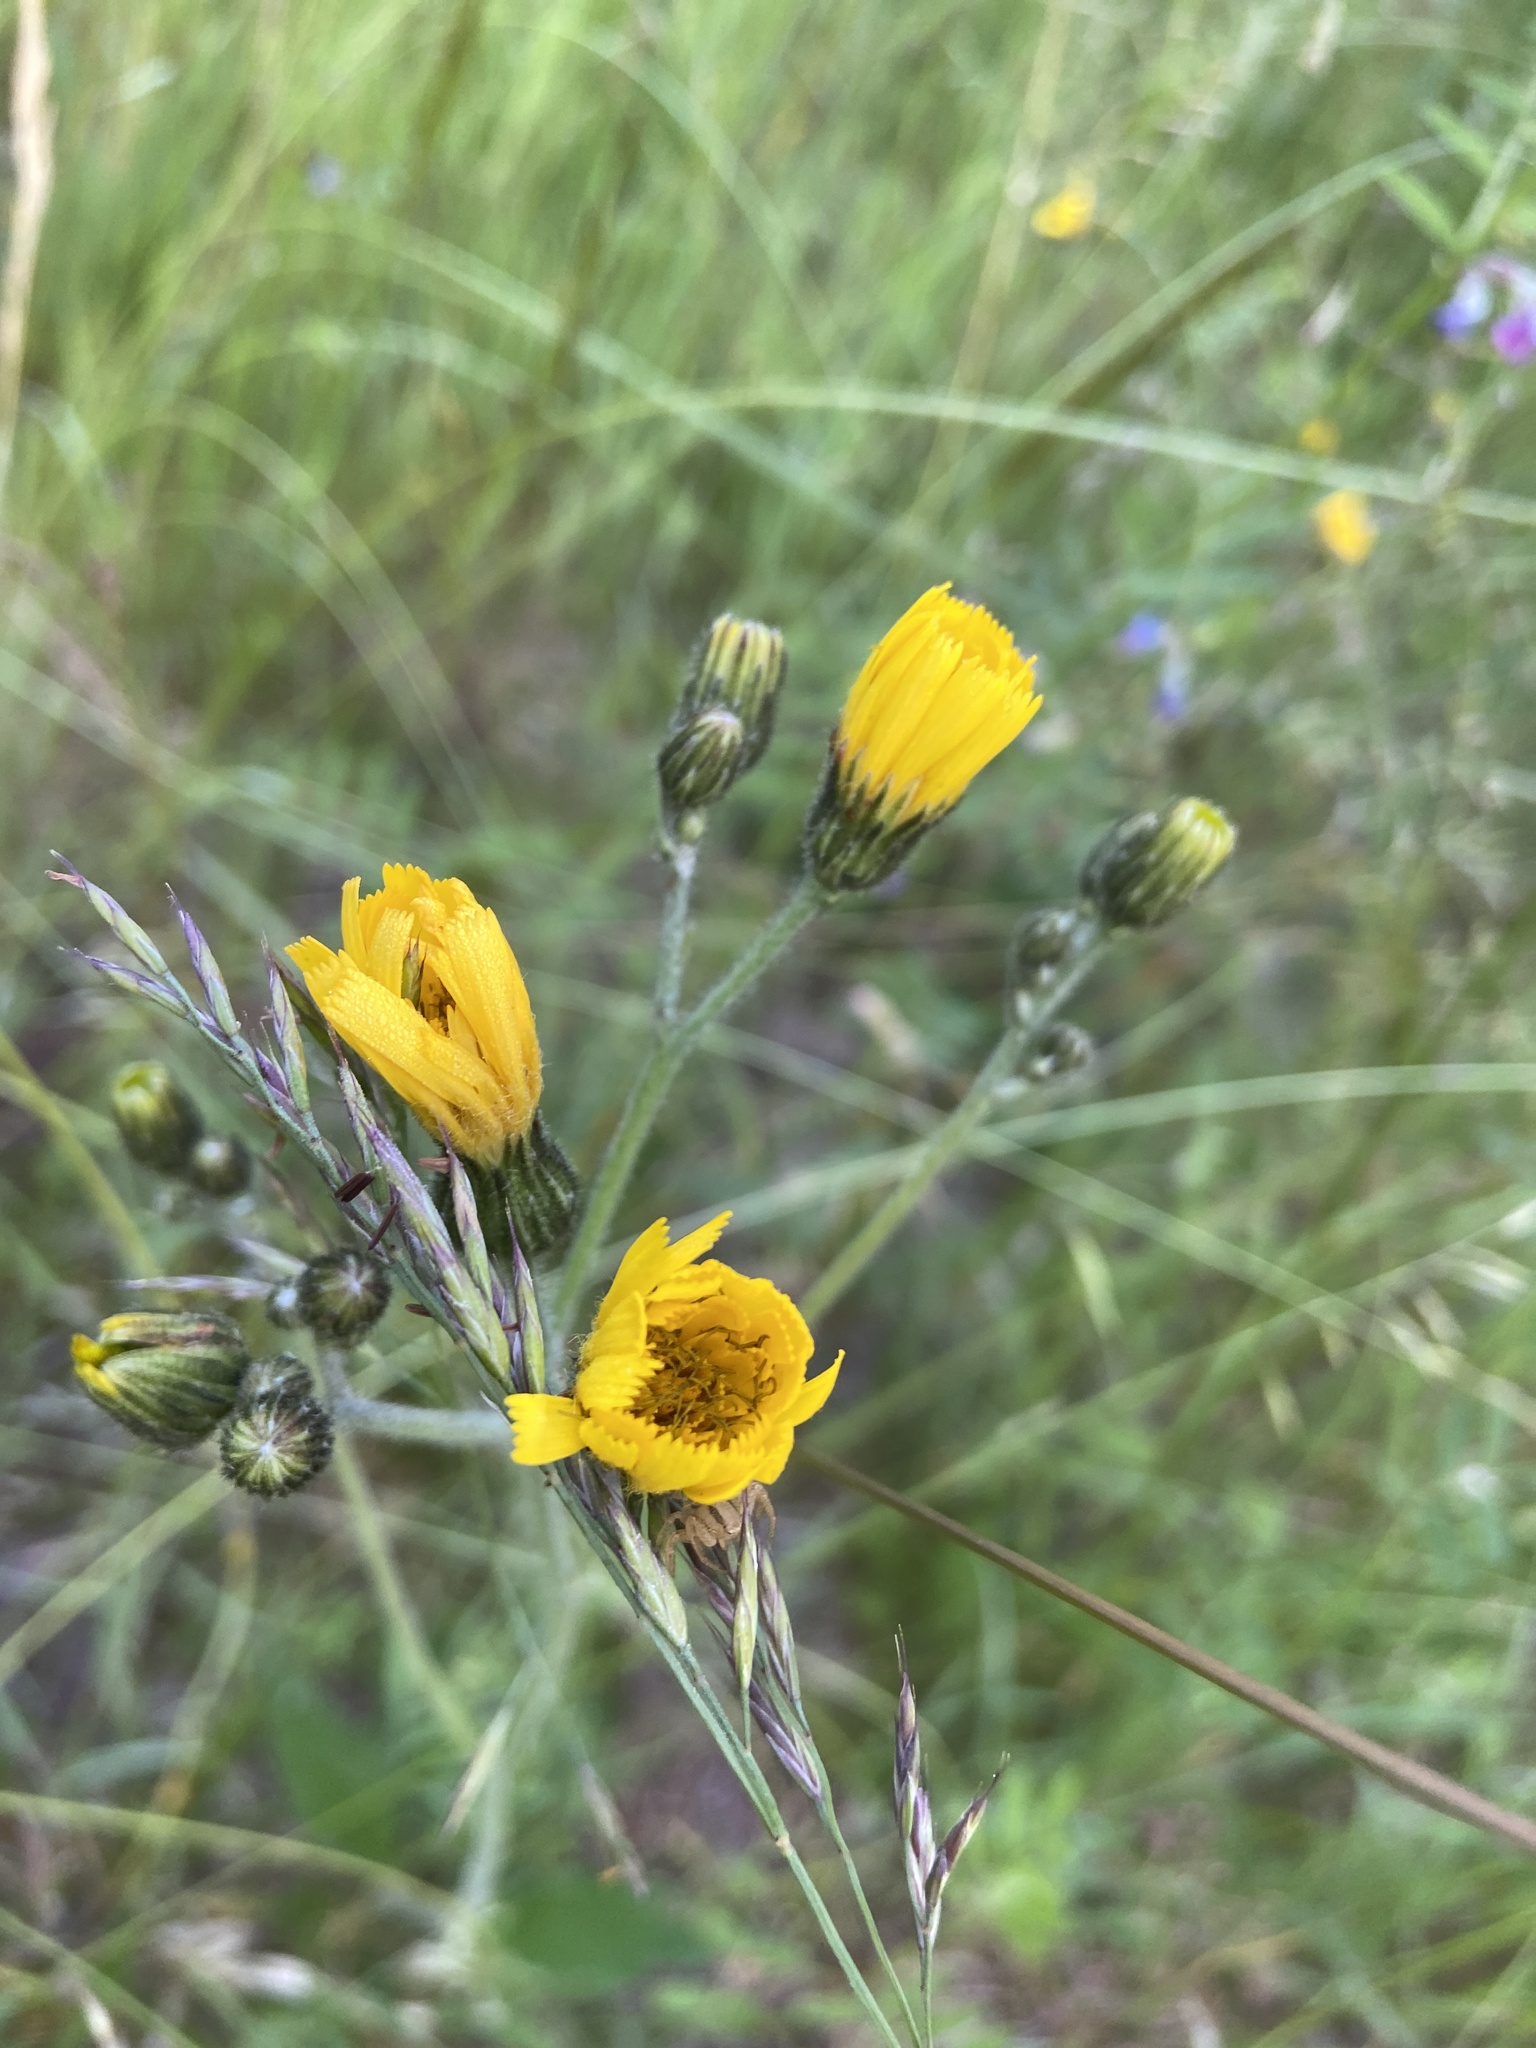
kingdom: Plantae
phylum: Tracheophyta
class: Magnoliopsida
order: Asterales
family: Asteraceae
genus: Hieracium
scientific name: Hieracium umbellatum
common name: Northern hawkweed
